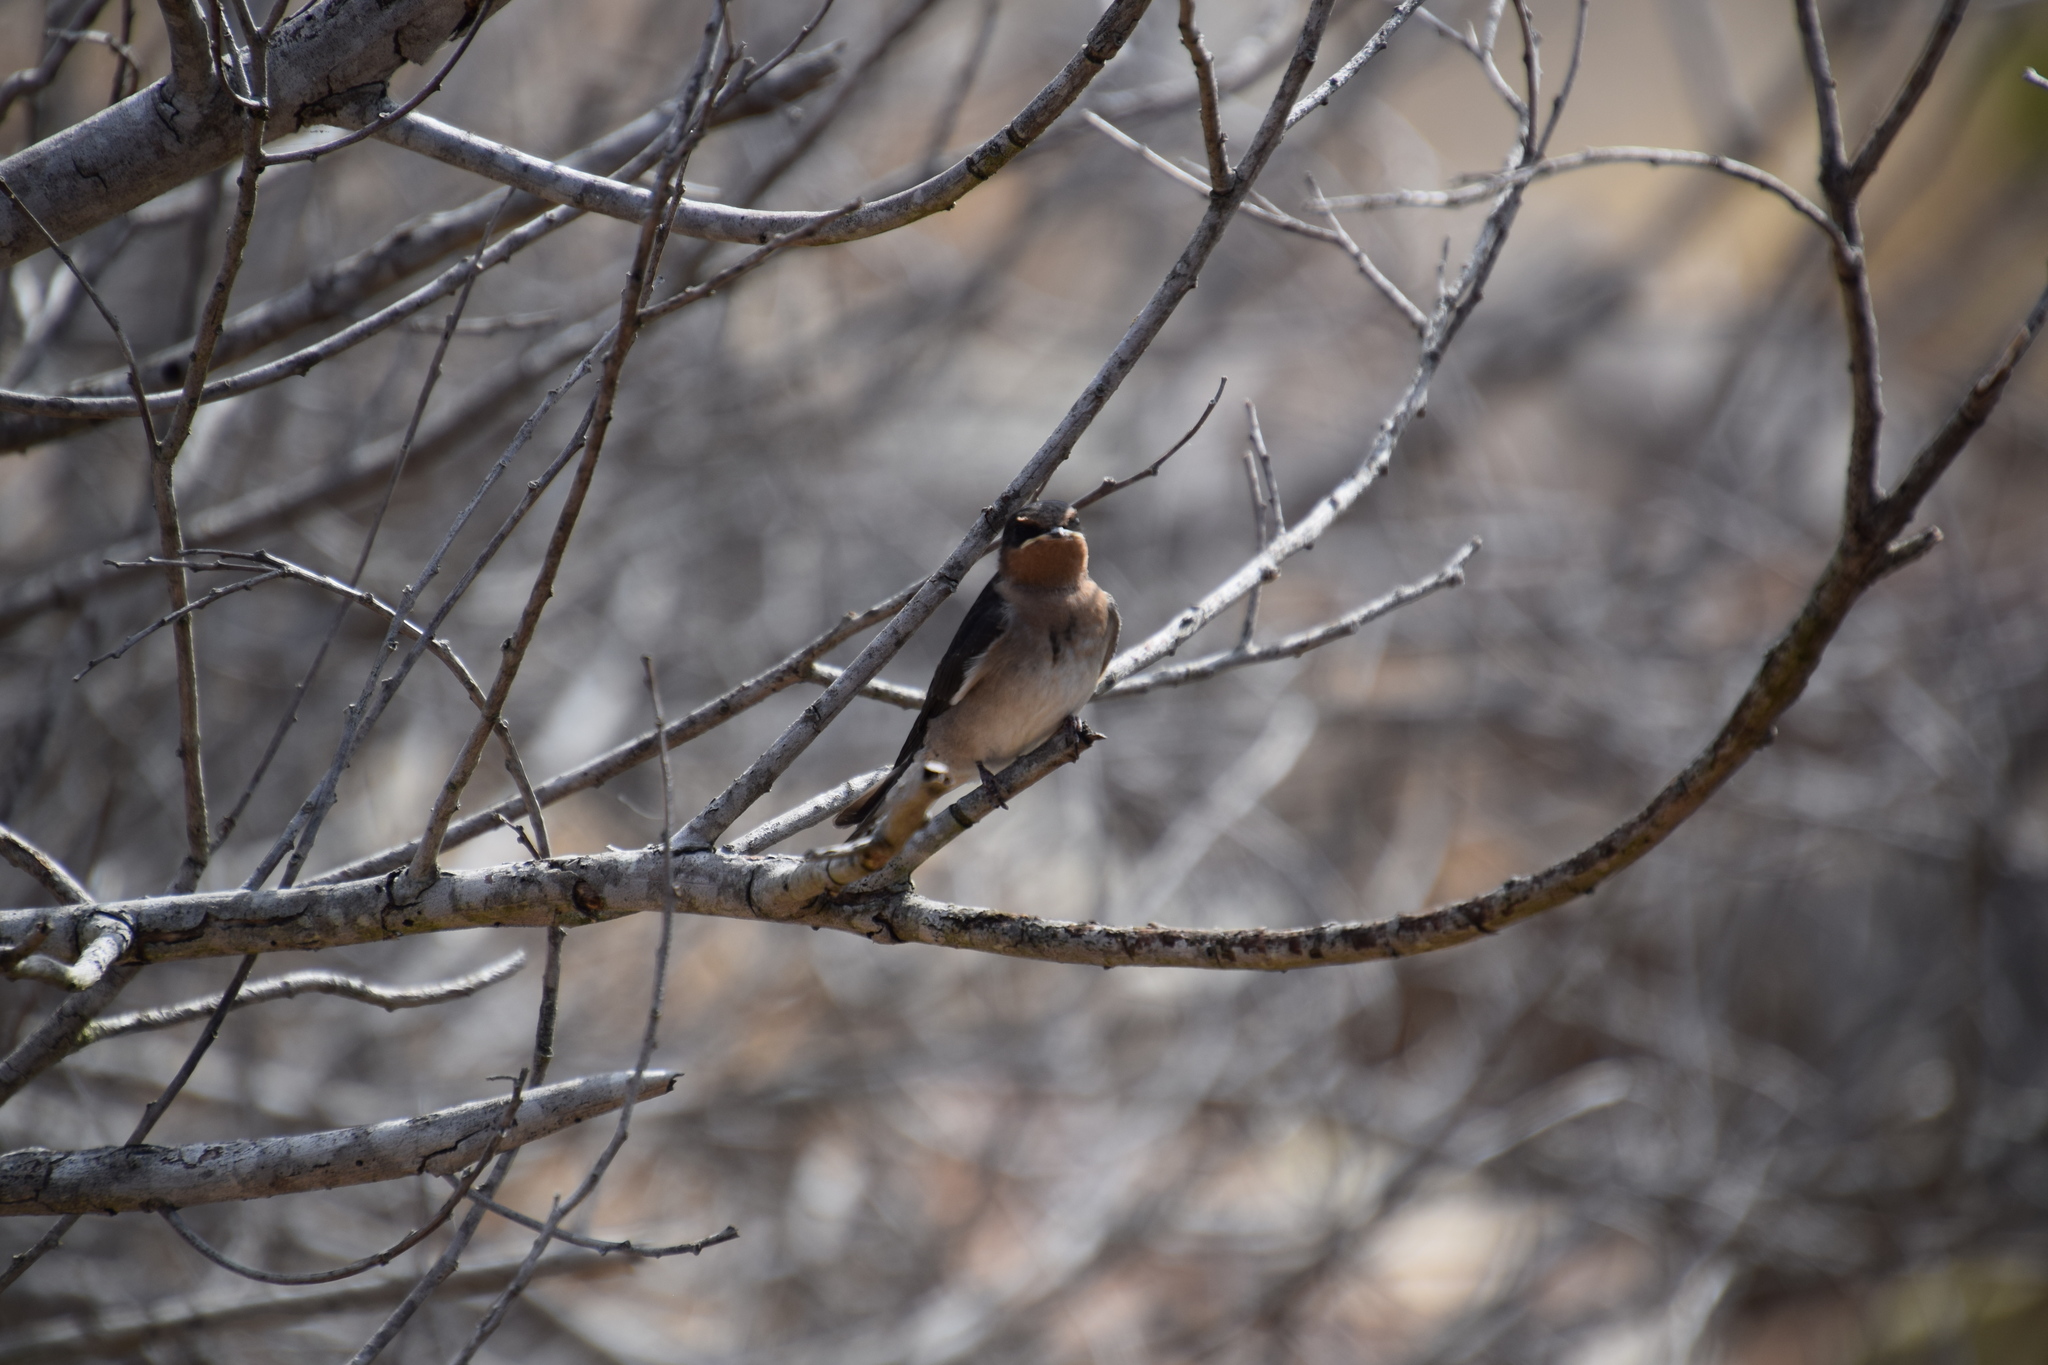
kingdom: Animalia
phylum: Chordata
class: Aves
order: Passeriformes
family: Hirundinidae
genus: Hirundo
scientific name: Hirundo neoxena
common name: Welcome swallow
